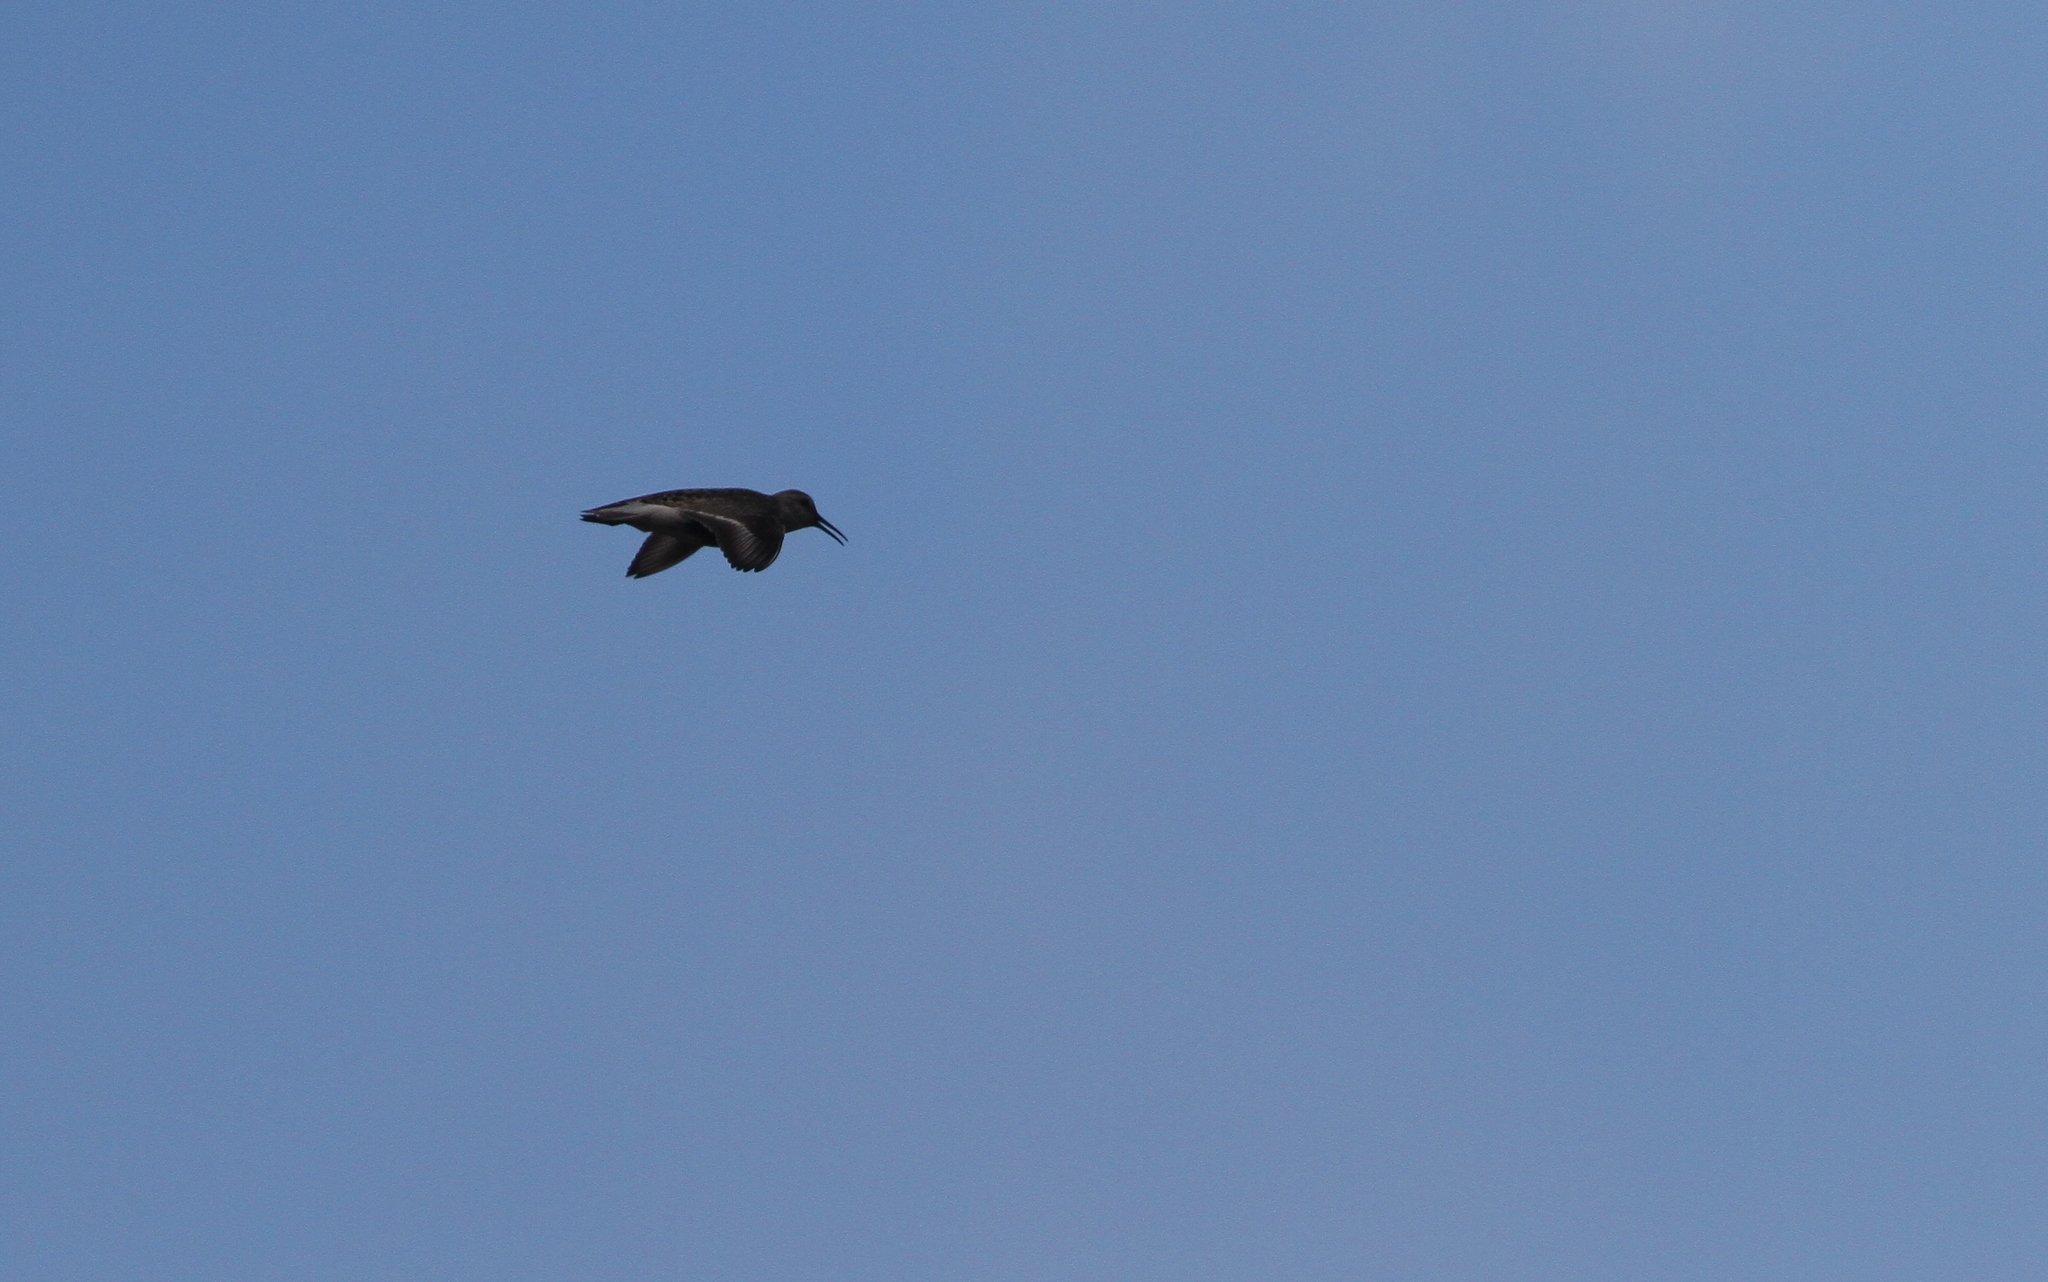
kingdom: Animalia
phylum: Chordata
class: Aves
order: Charadriiformes
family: Scolopacidae
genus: Calidris
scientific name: Calidris alpina
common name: Dunlin
